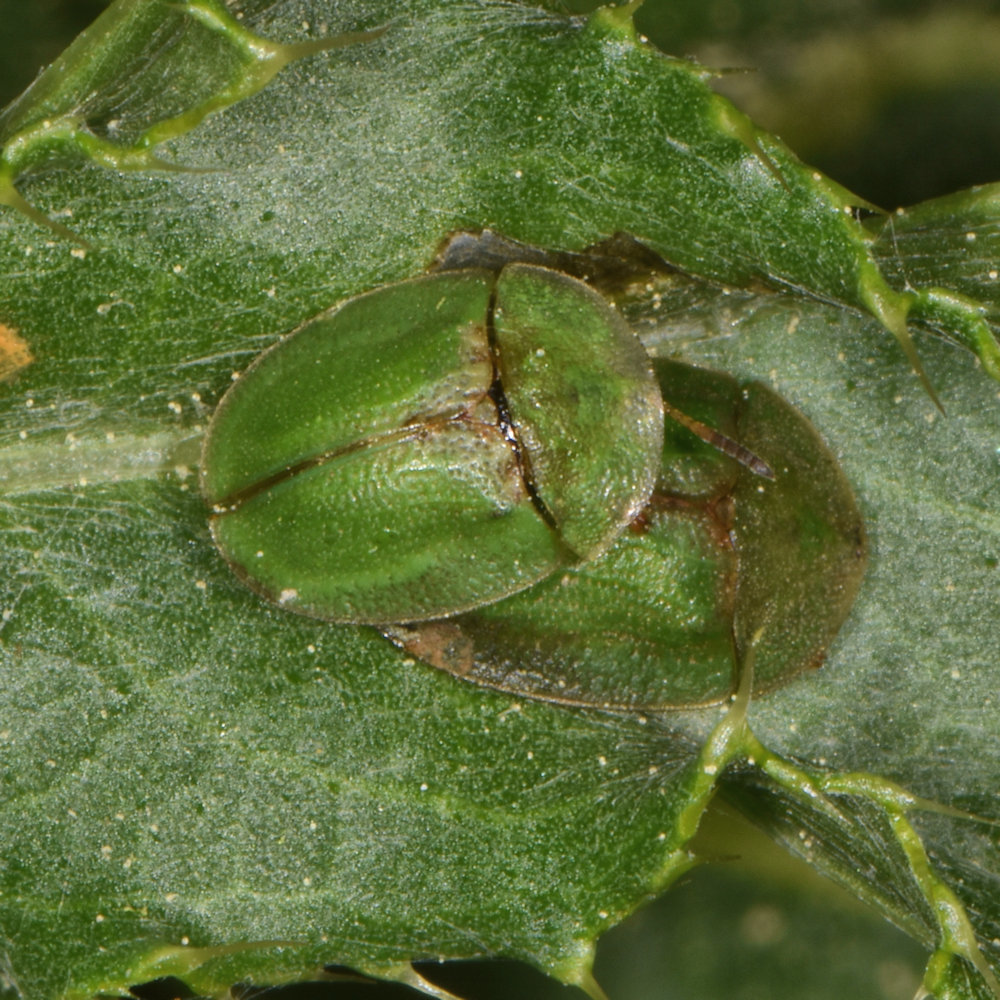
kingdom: Animalia
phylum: Arthropoda
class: Insecta
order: Coleoptera
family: Chrysomelidae
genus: Cassida
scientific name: Cassida rubiginosa
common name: Thistle tortoise beetle
